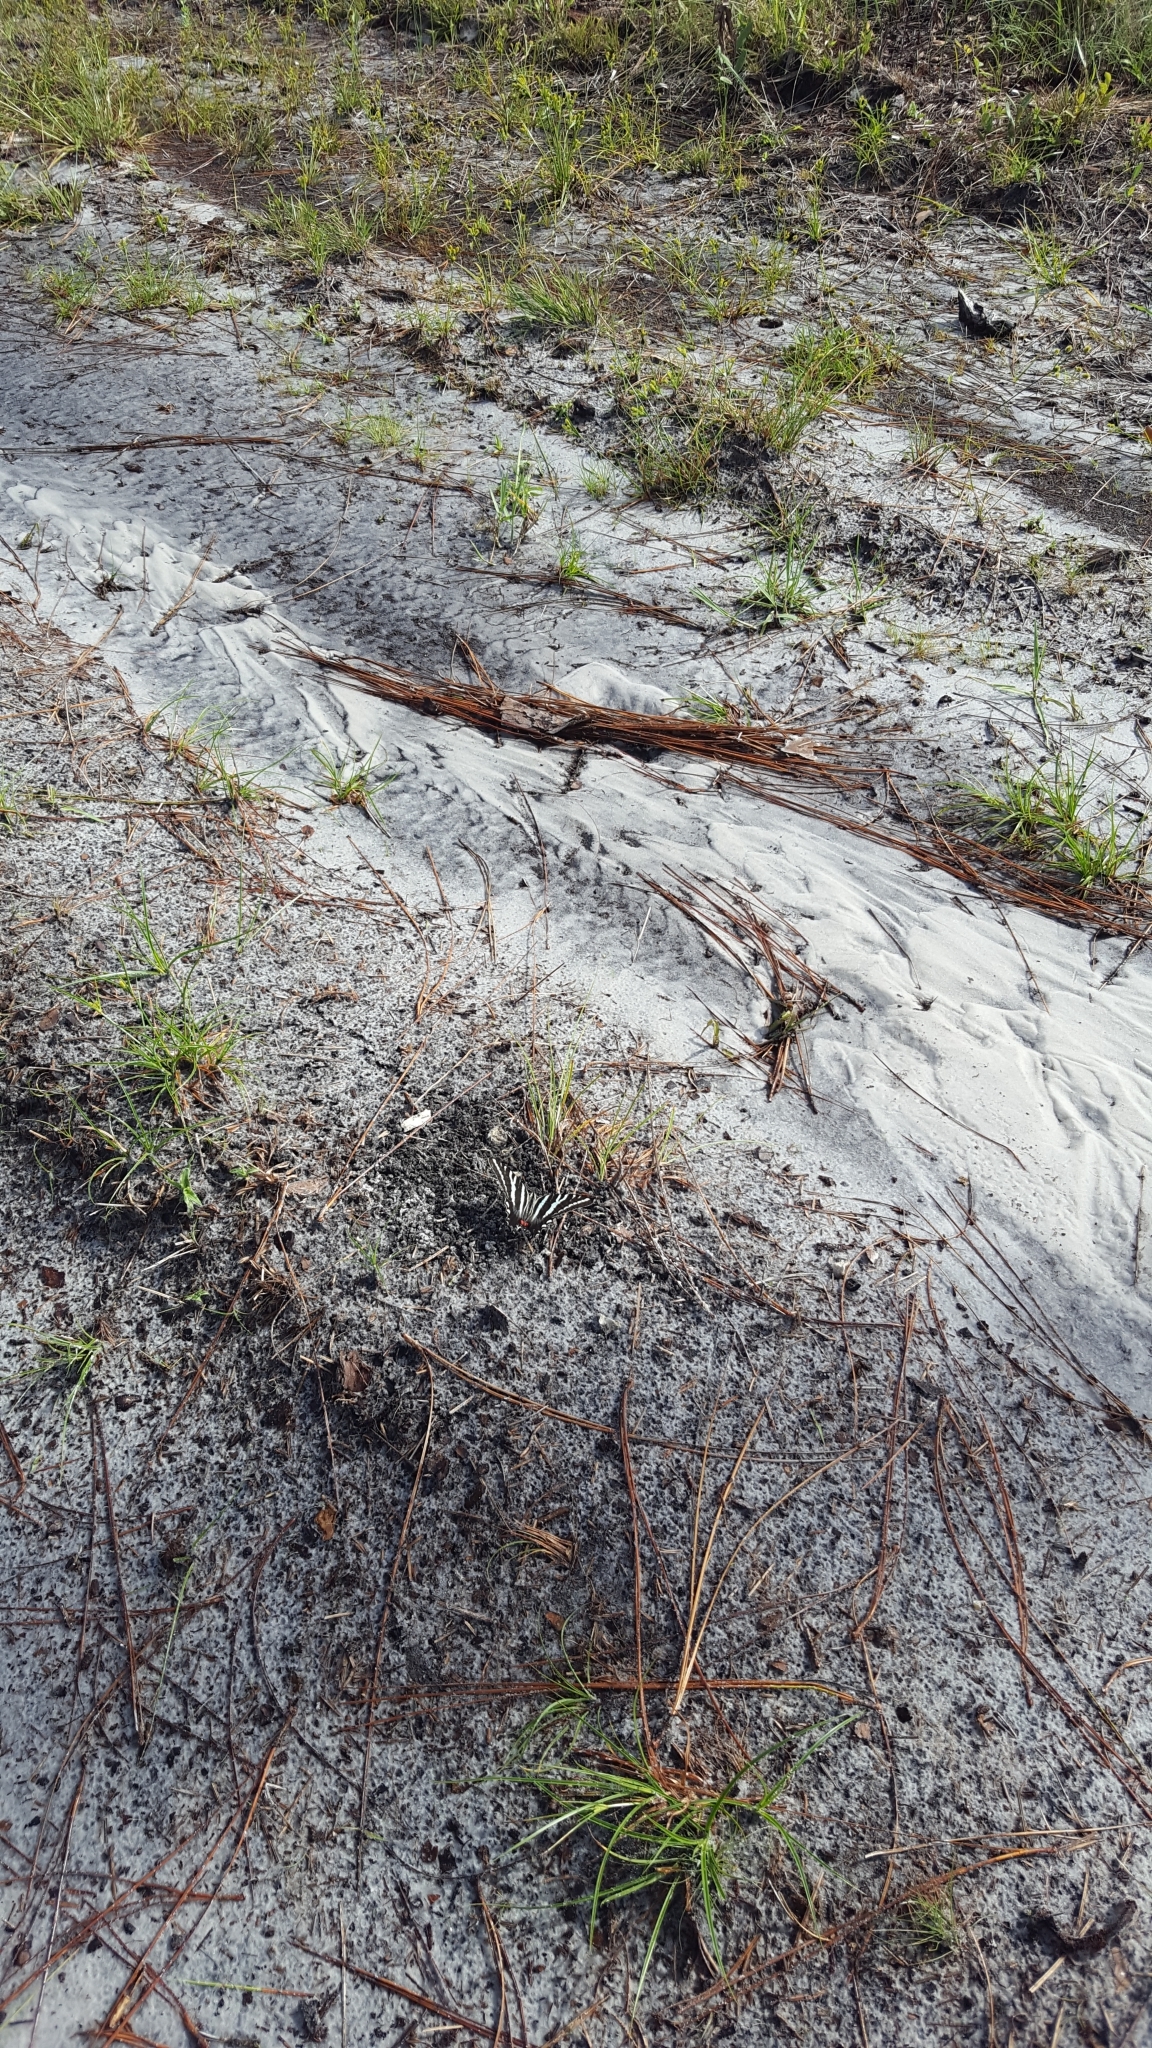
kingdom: Animalia
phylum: Arthropoda
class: Insecta
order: Lepidoptera
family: Papilionidae
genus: Protographium
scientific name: Protographium marcellus
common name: Zebra swallowtail
